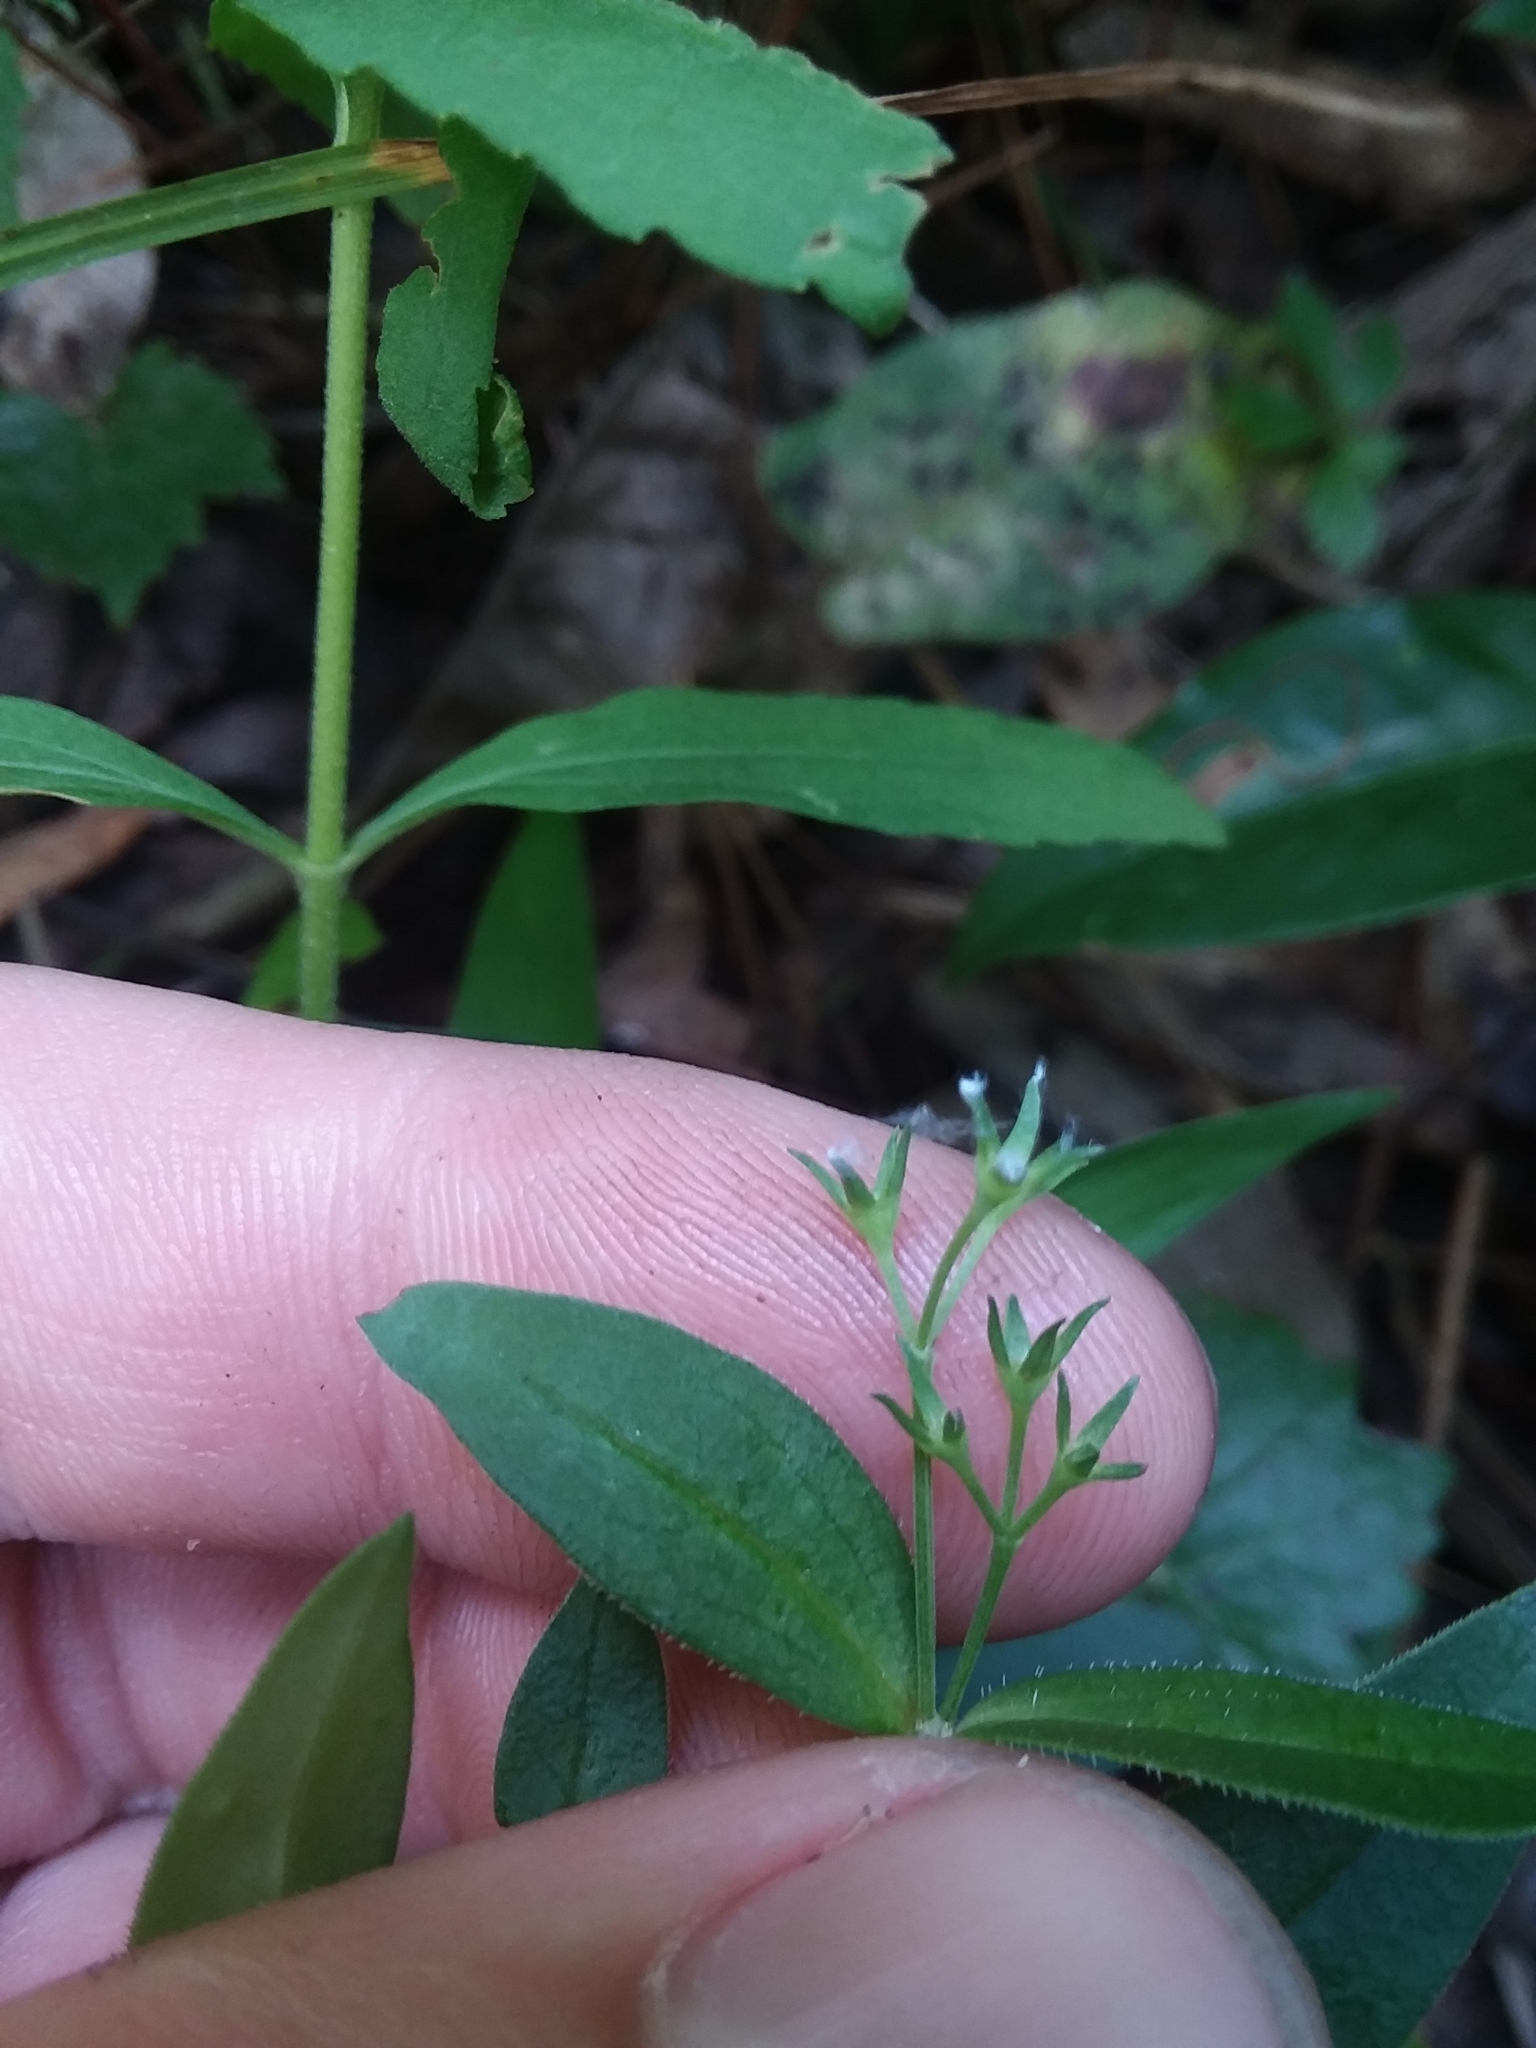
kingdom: Plantae
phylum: Tracheophyta
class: Magnoliopsida
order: Gentianales
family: Rubiaceae
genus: Houstonia
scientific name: Houstonia purpurea
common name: Summer bluet
